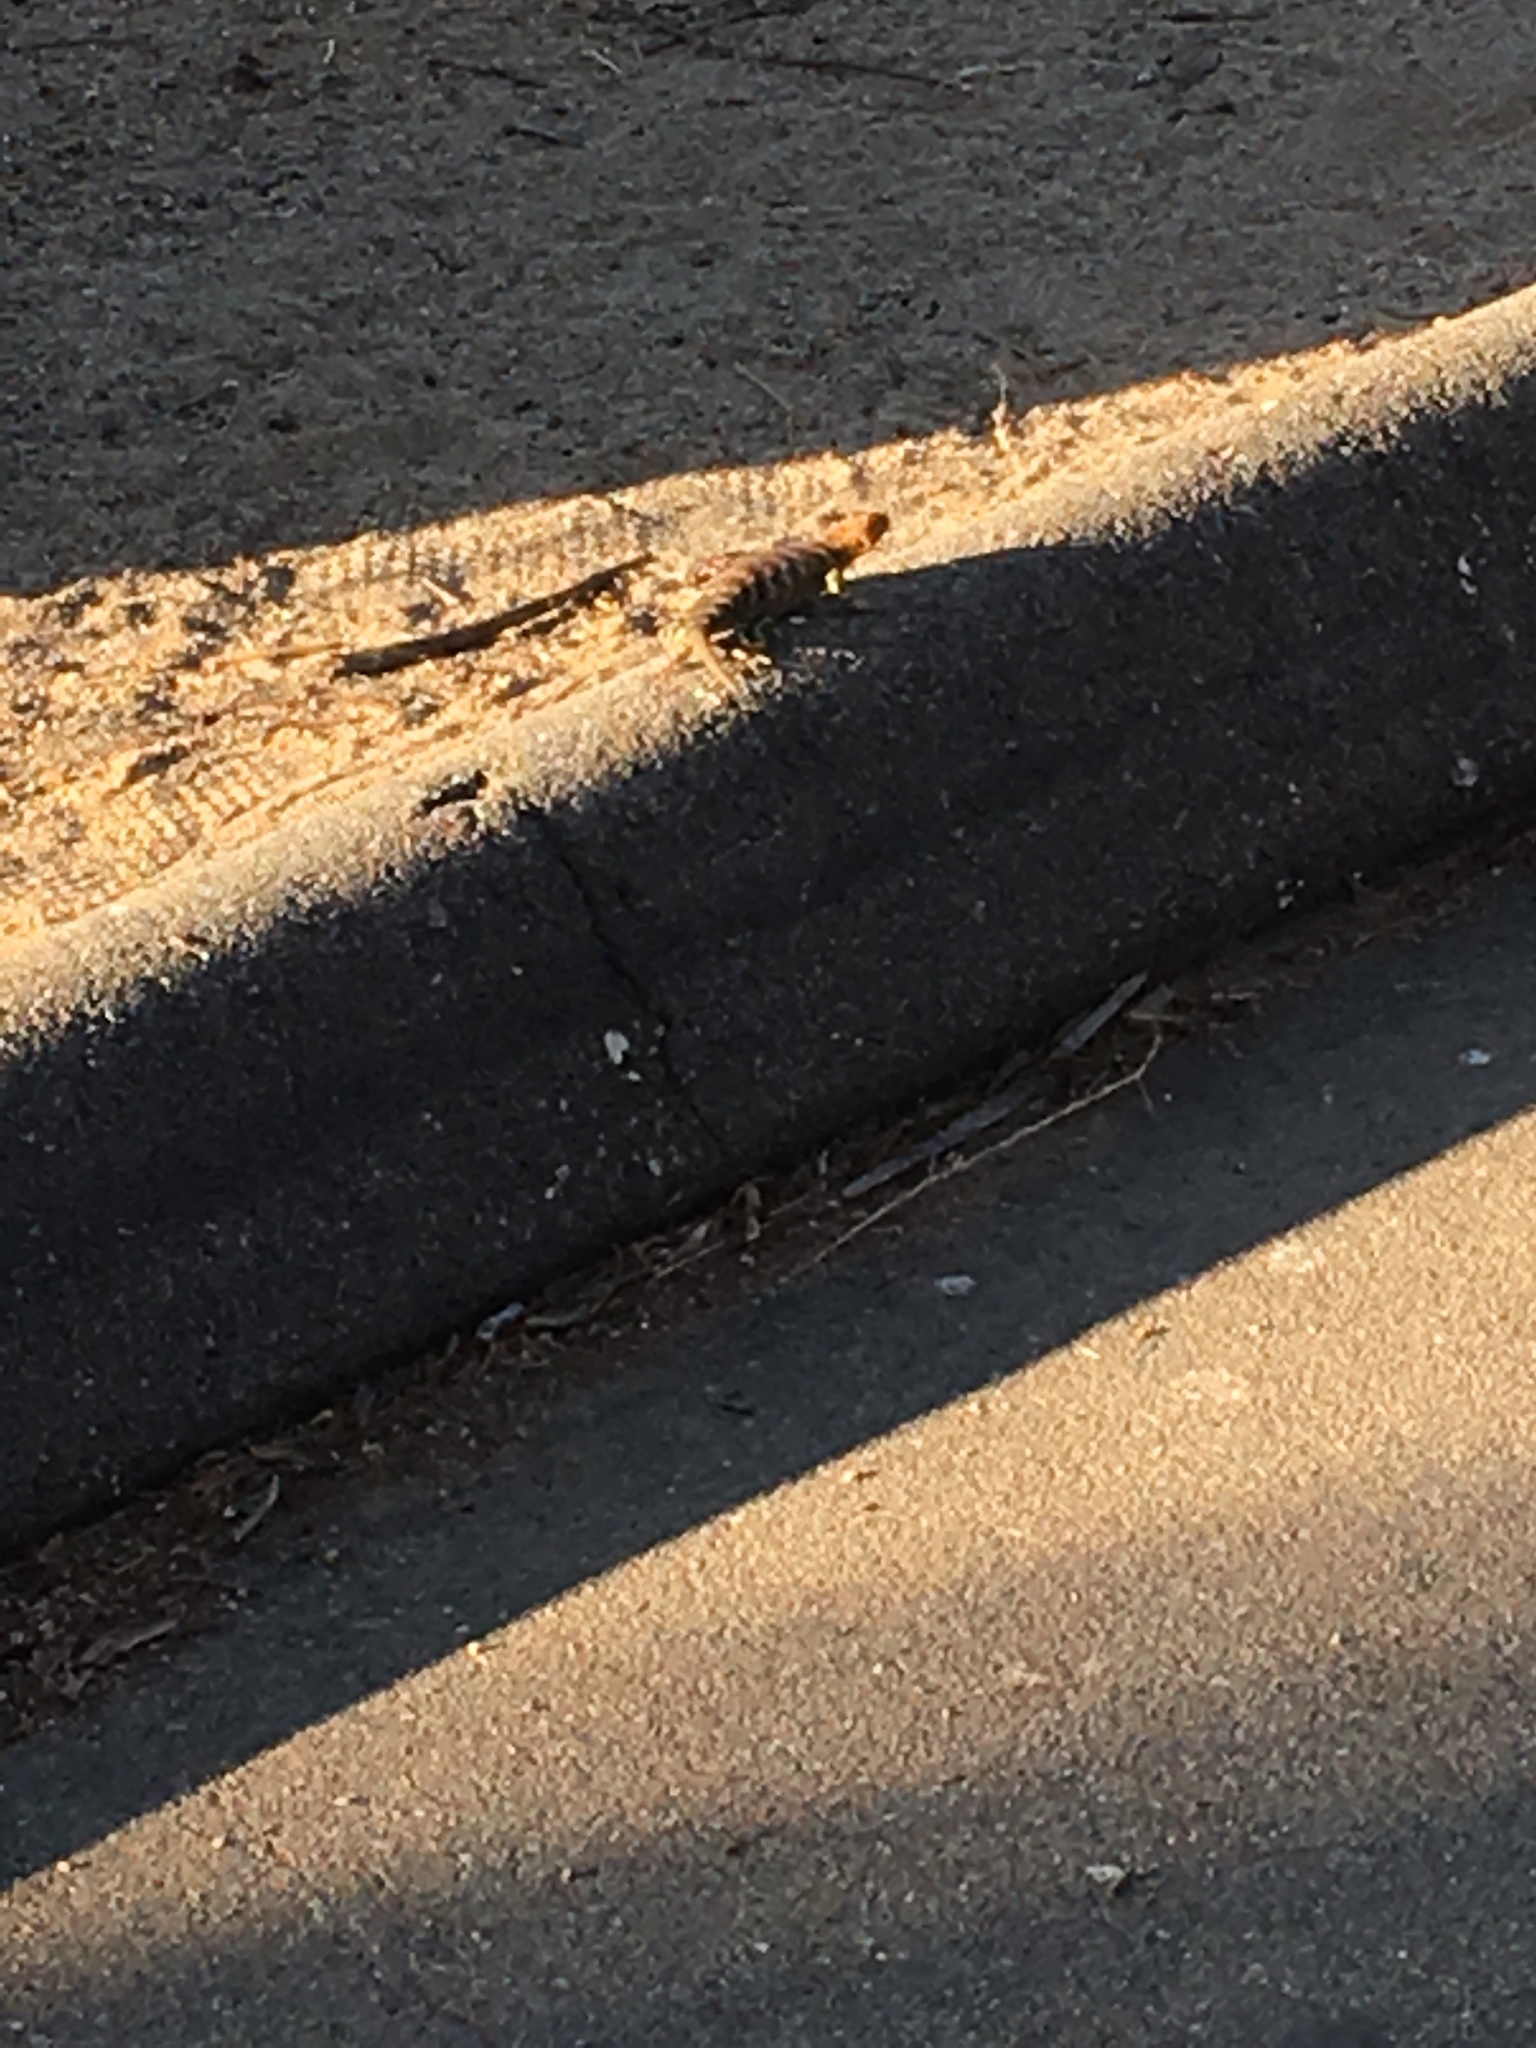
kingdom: Animalia
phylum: Chordata
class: Squamata
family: Phrynosomatidae
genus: Sceloporus
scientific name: Sceloporus orcutti
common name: Granite spiny lizard
